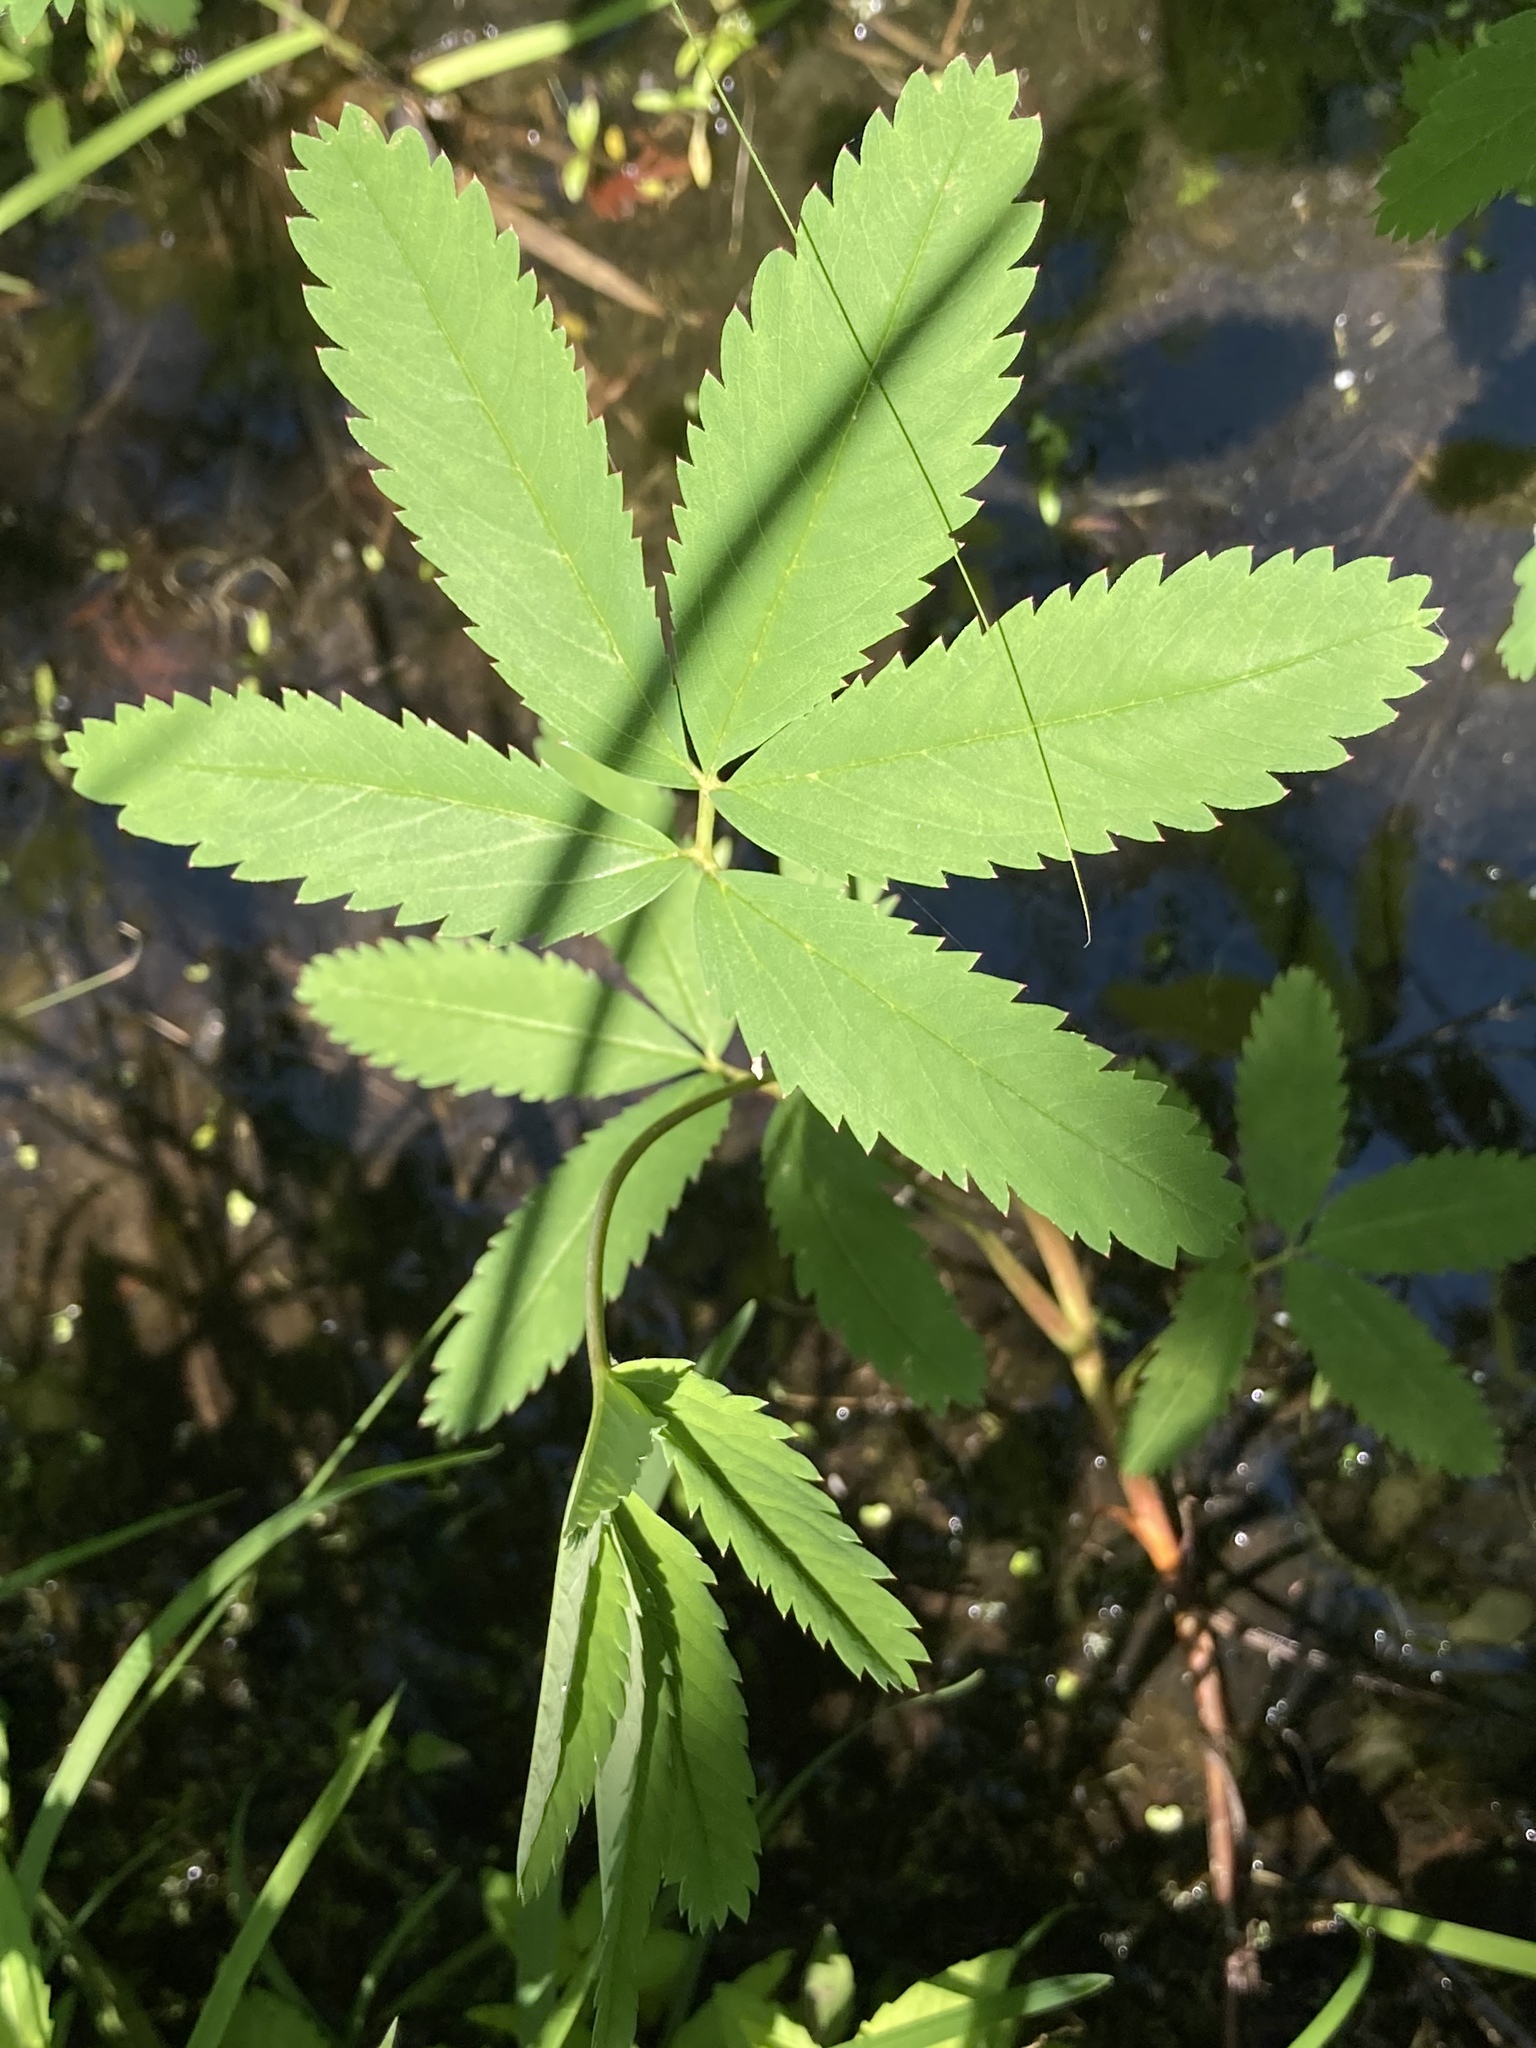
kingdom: Plantae
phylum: Tracheophyta
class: Magnoliopsida
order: Rosales
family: Rosaceae
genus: Comarum
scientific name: Comarum palustre
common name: Marsh cinquefoil
